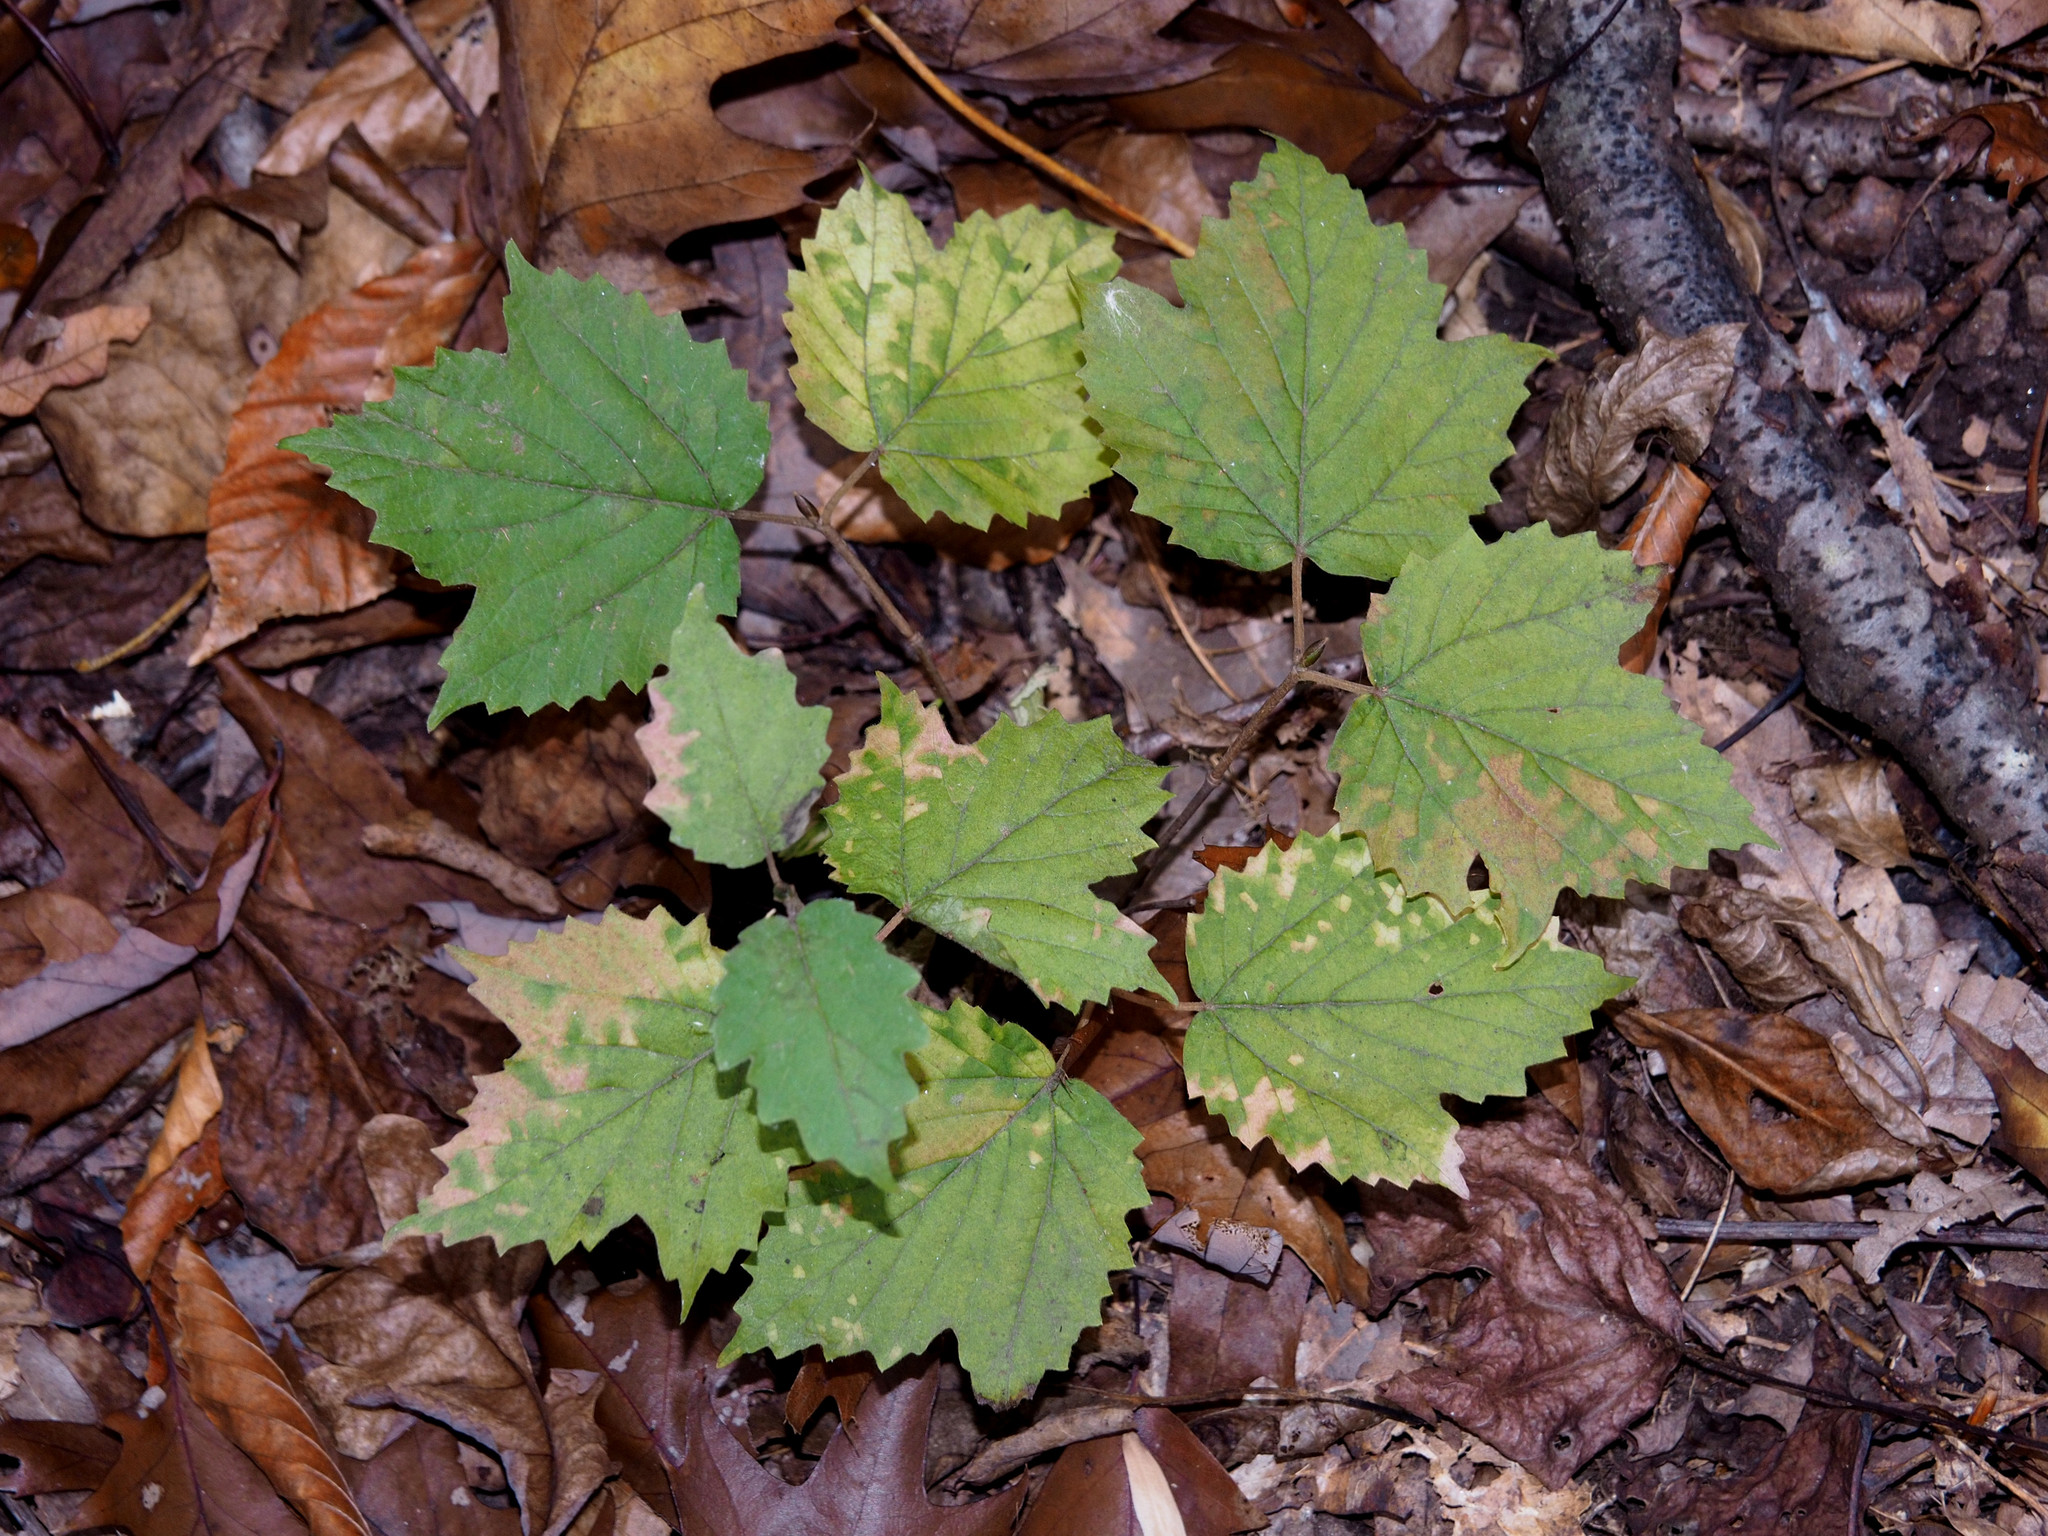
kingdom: Plantae
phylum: Tracheophyta
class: Magnoliopsida
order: Dipsacales
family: Viburnaceae
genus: Viburnum
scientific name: Viburnum acerifolium
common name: Dockmackie
